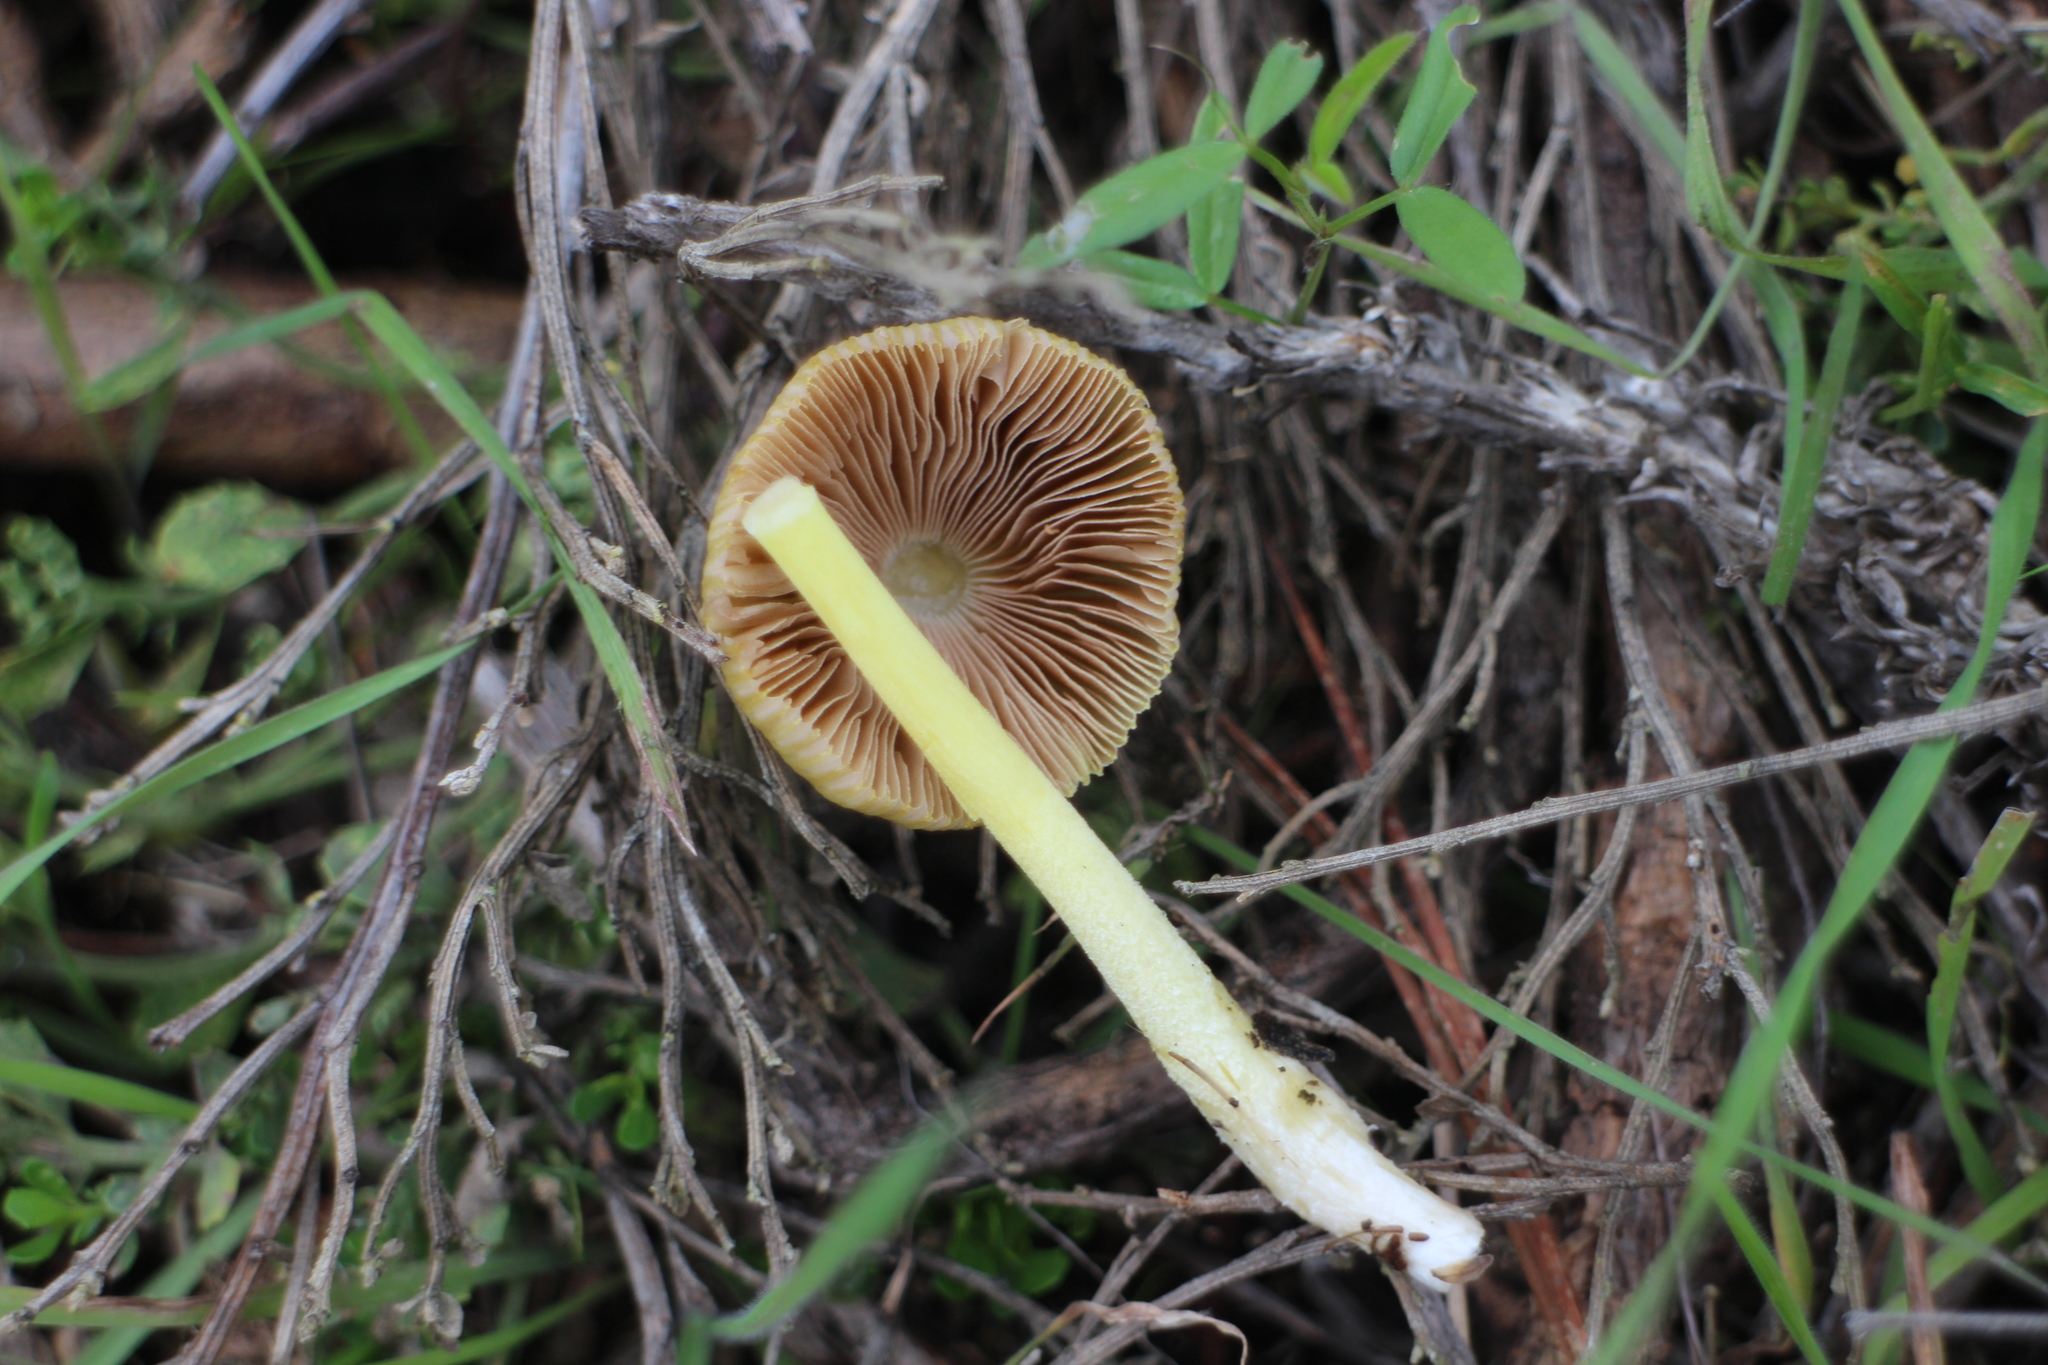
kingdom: Fungi
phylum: Basidiomycota
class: Agaricomycetes
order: Agaricales
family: Bolbitiaceae
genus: Bolbitius
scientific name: Bolbitius titubans
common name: Yellow fieldcap
